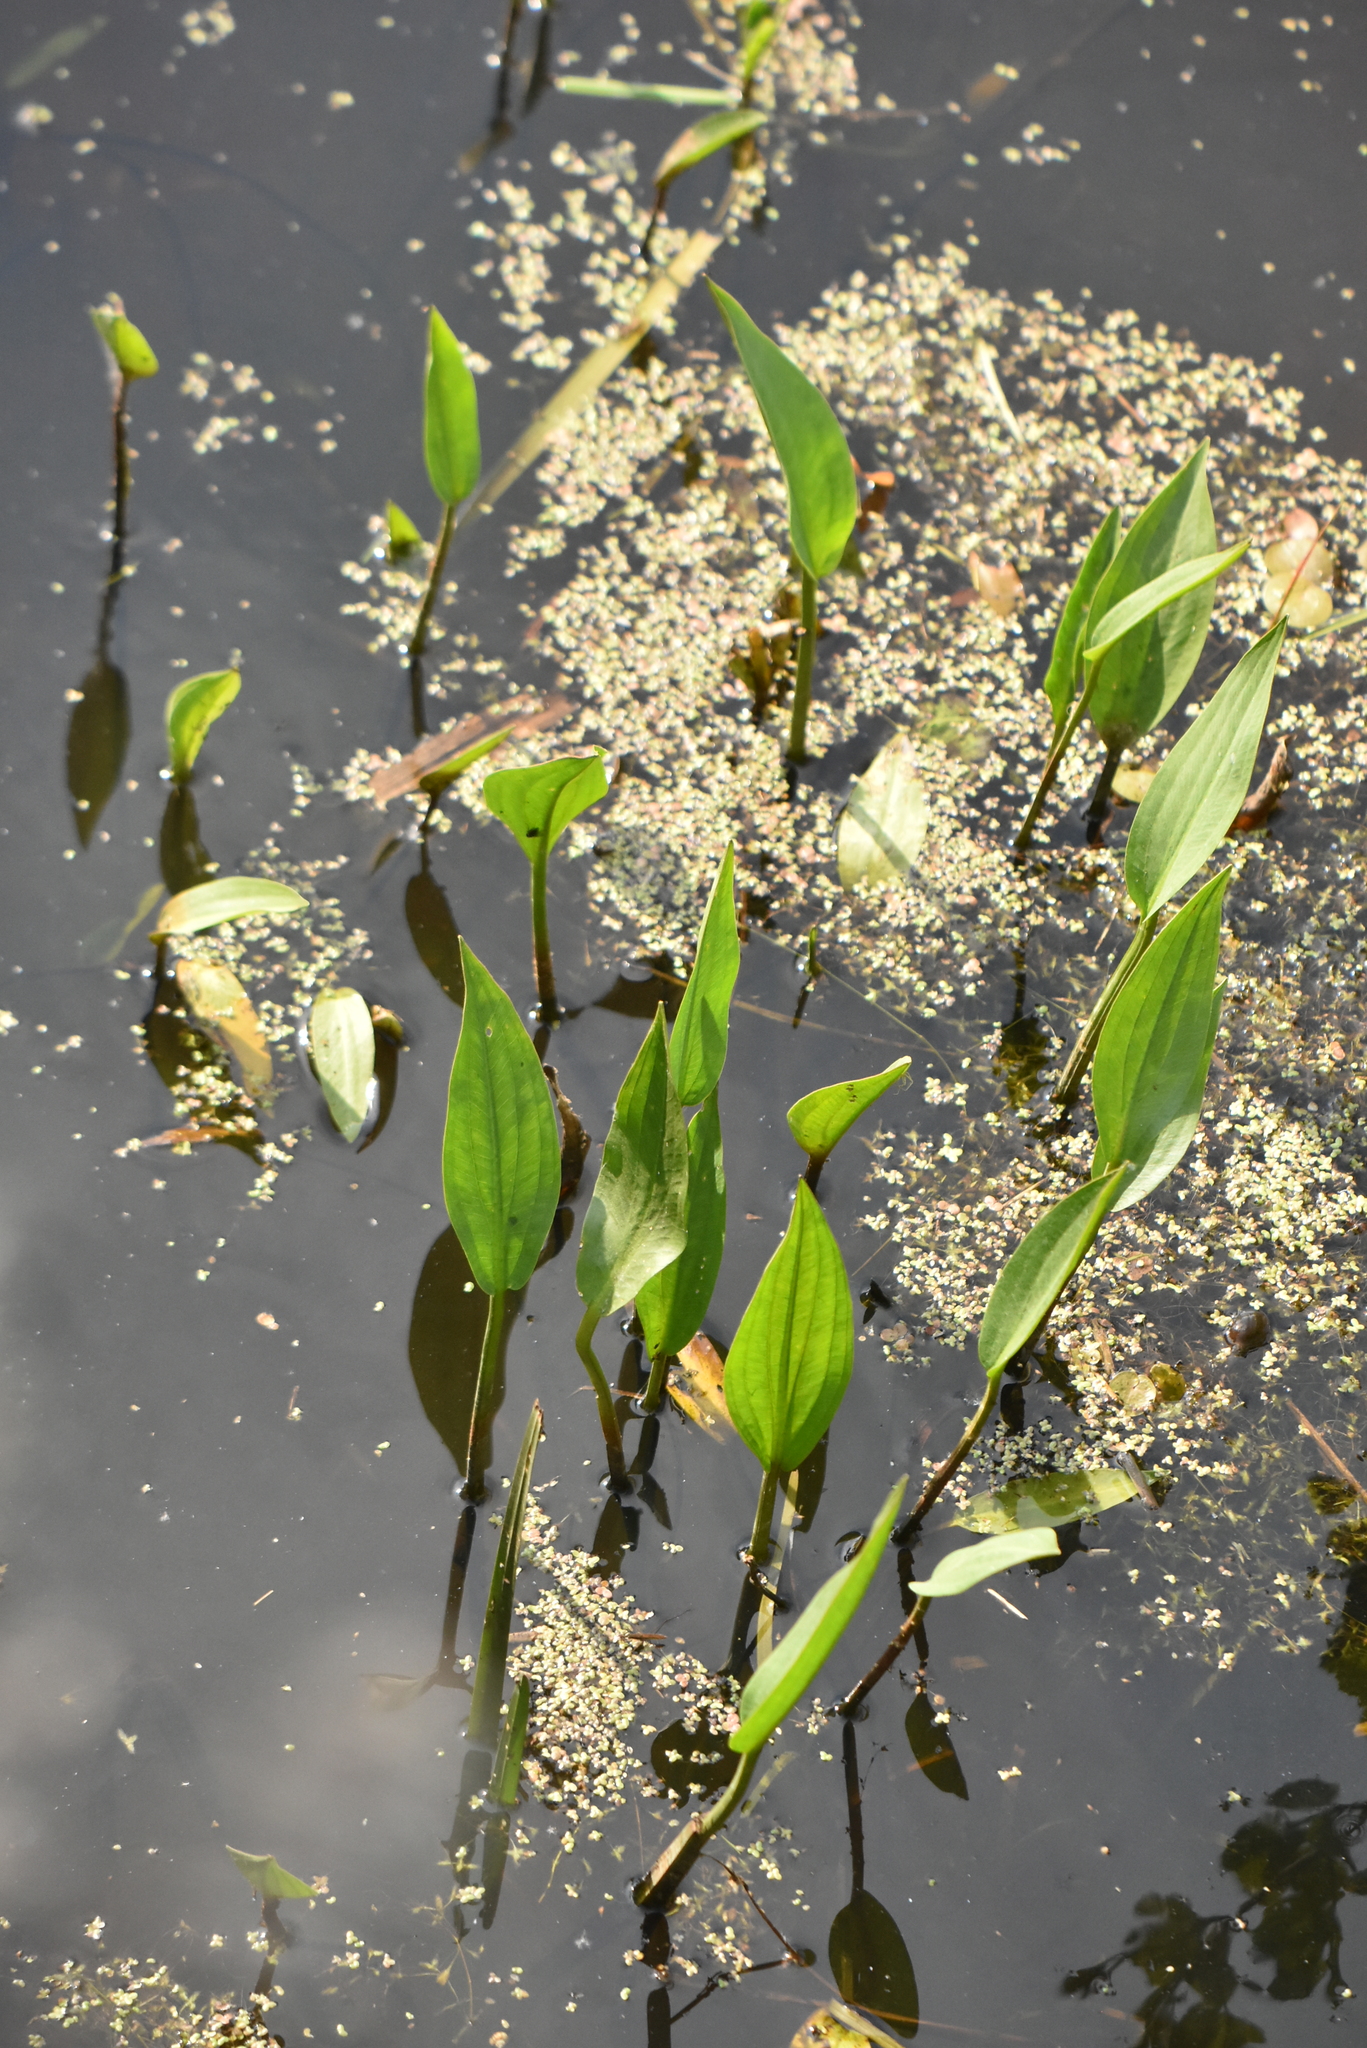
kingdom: Plantae
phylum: Tracheophyta
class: Liliopsida
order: Alismatales
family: Alismataceae
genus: Alisma
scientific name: Alisma plantago-aquatica
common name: Water-plantain
